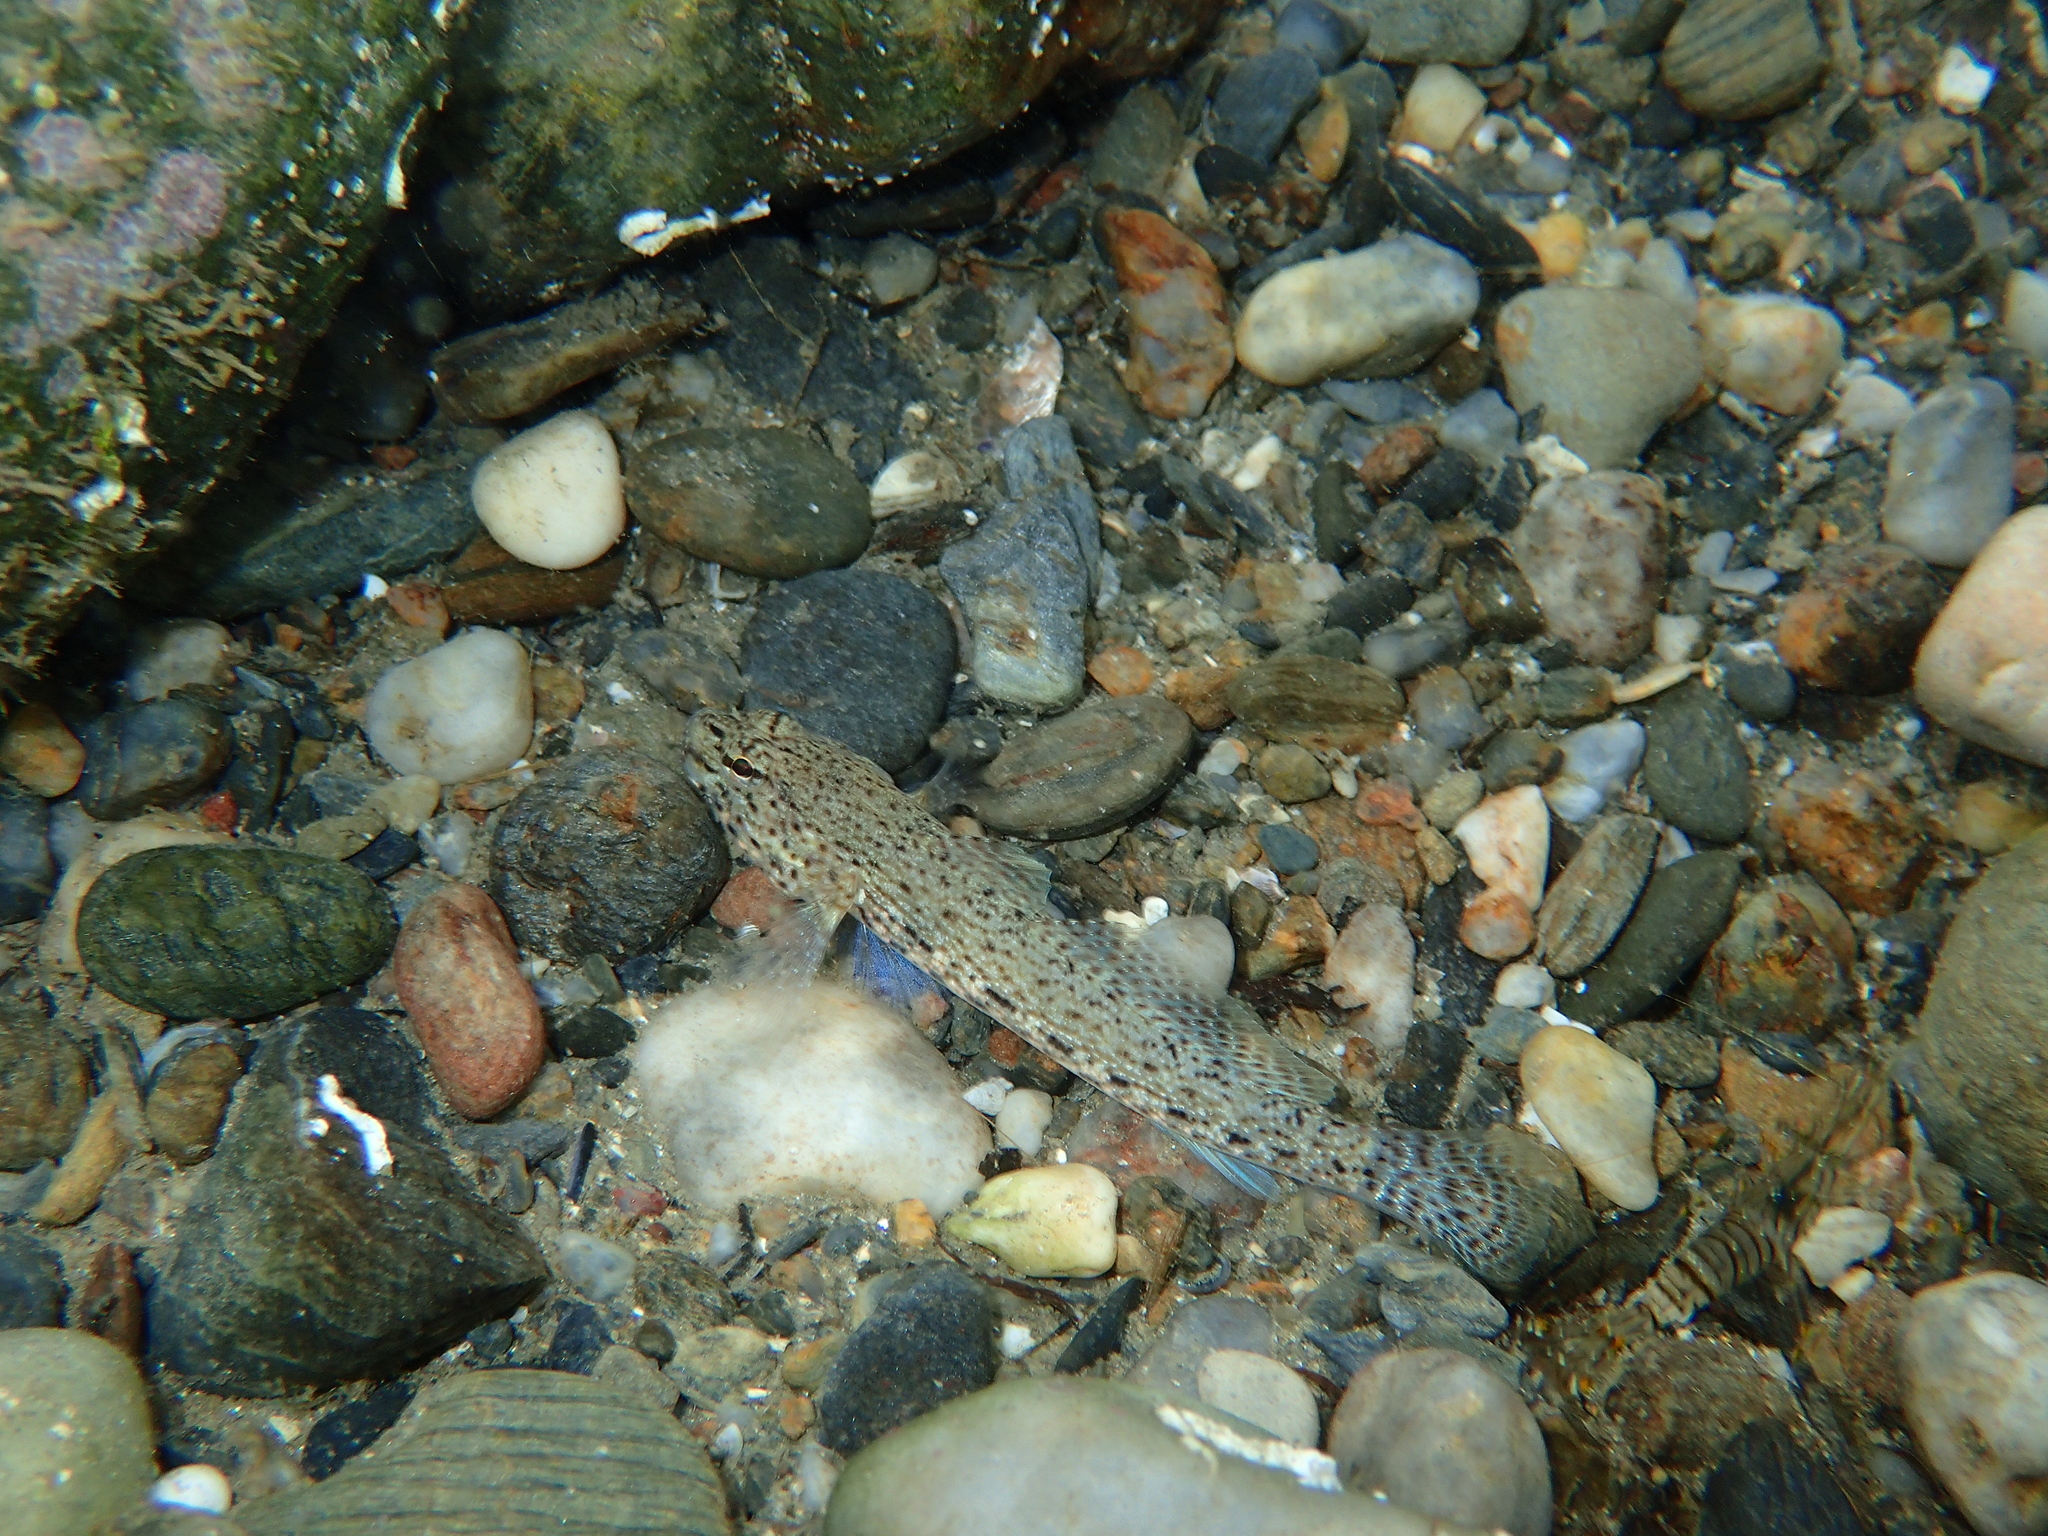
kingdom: Animalia
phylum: Chordata
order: Perciformes
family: Gobiidae
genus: Gobius
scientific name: Gobius incognitus
